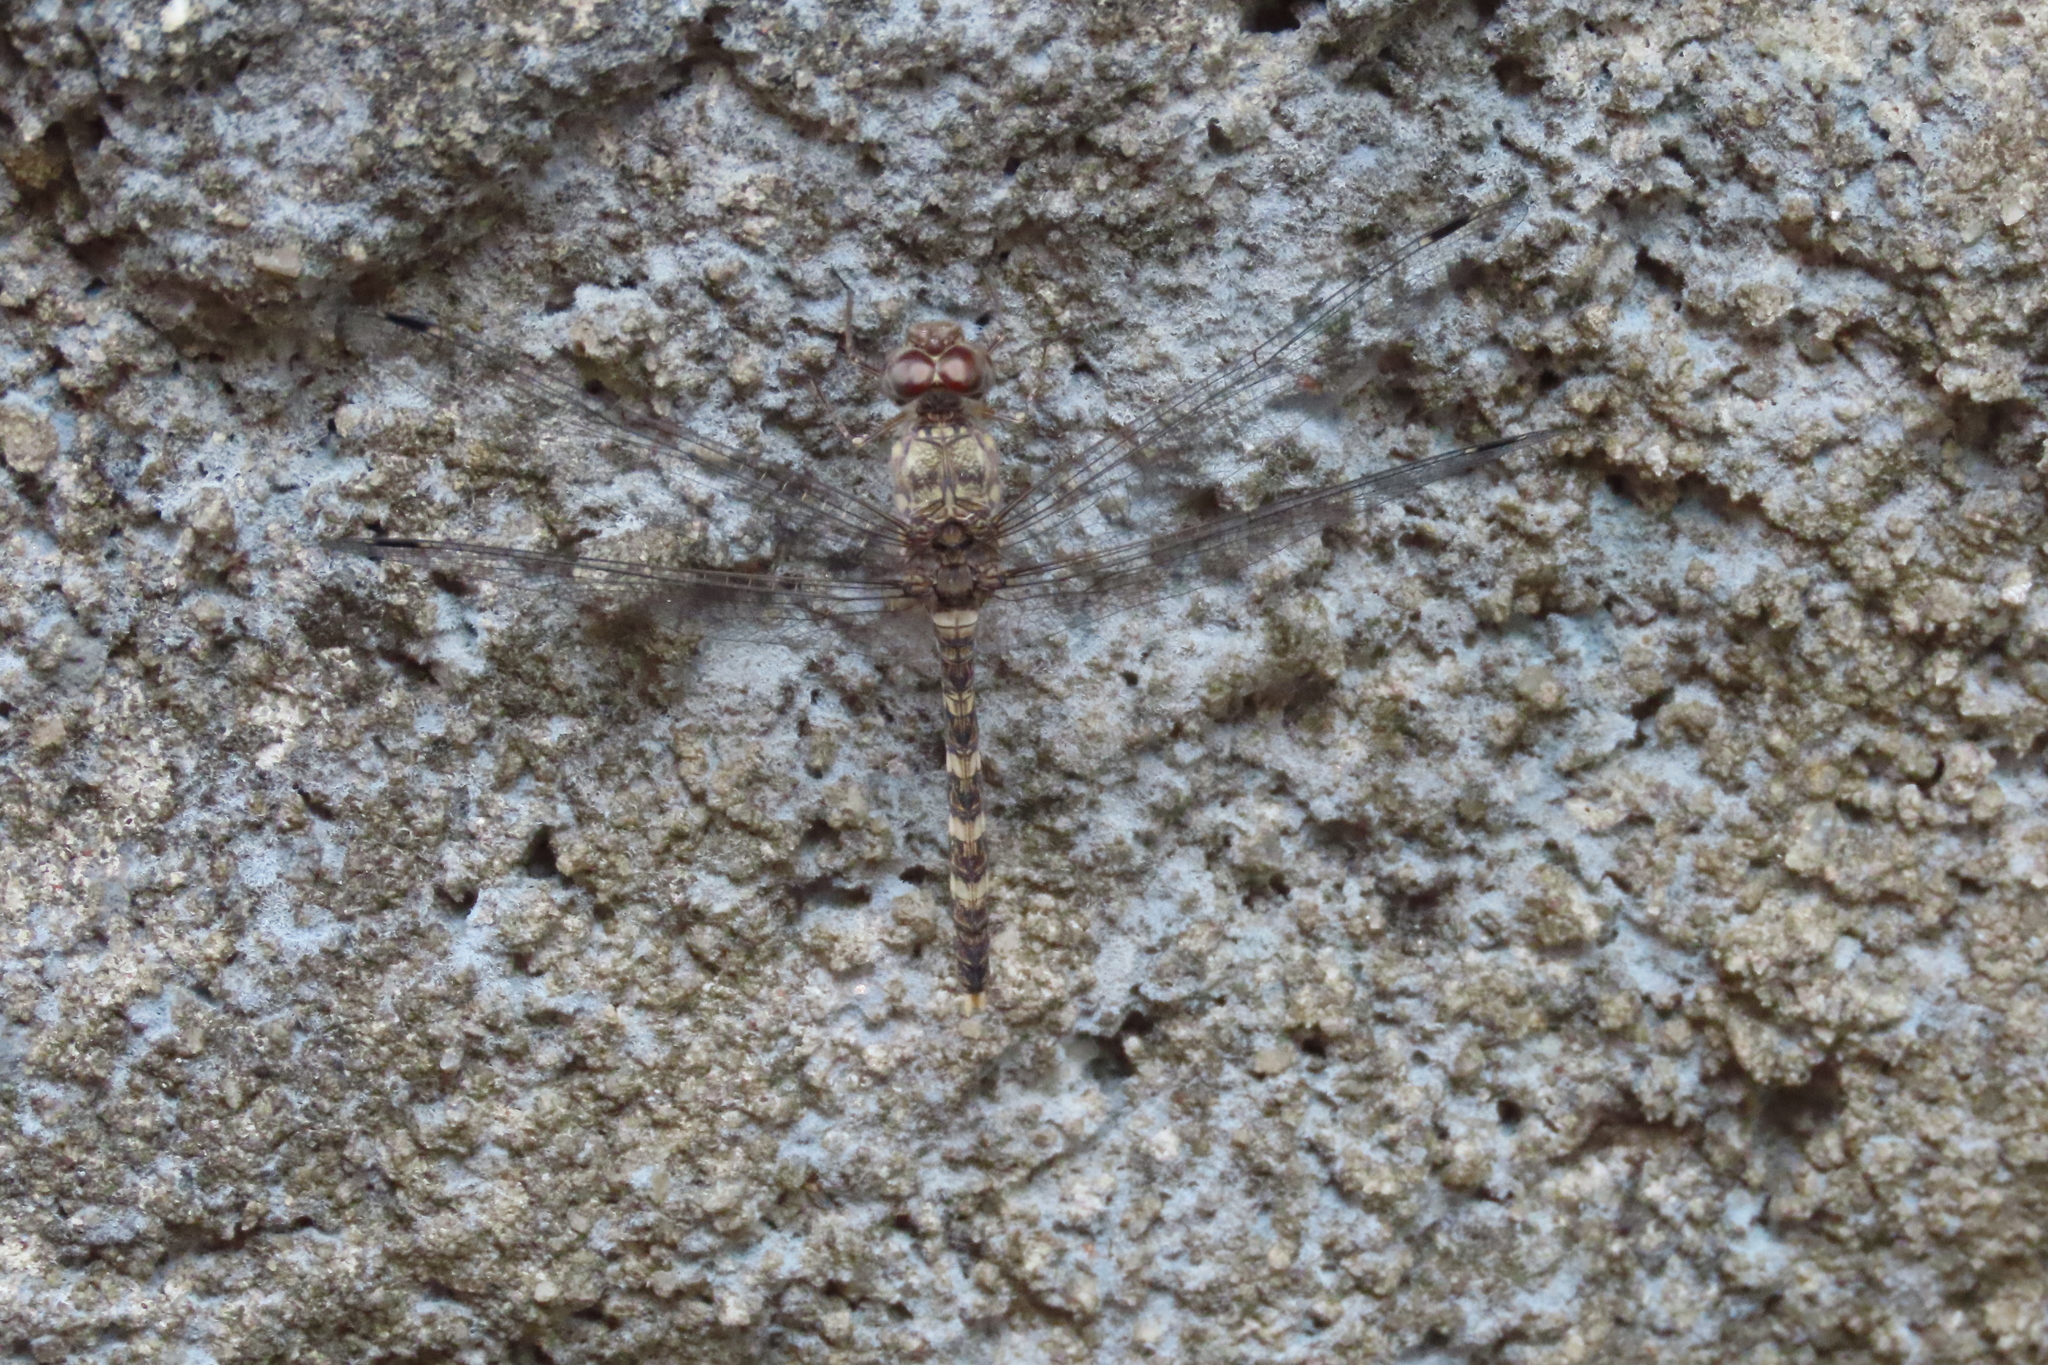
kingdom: Animalia
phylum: Arthropoda
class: Insecta
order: Odonata
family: Libellulidae
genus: Bradinopyga
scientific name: Bradinopyga geminata
